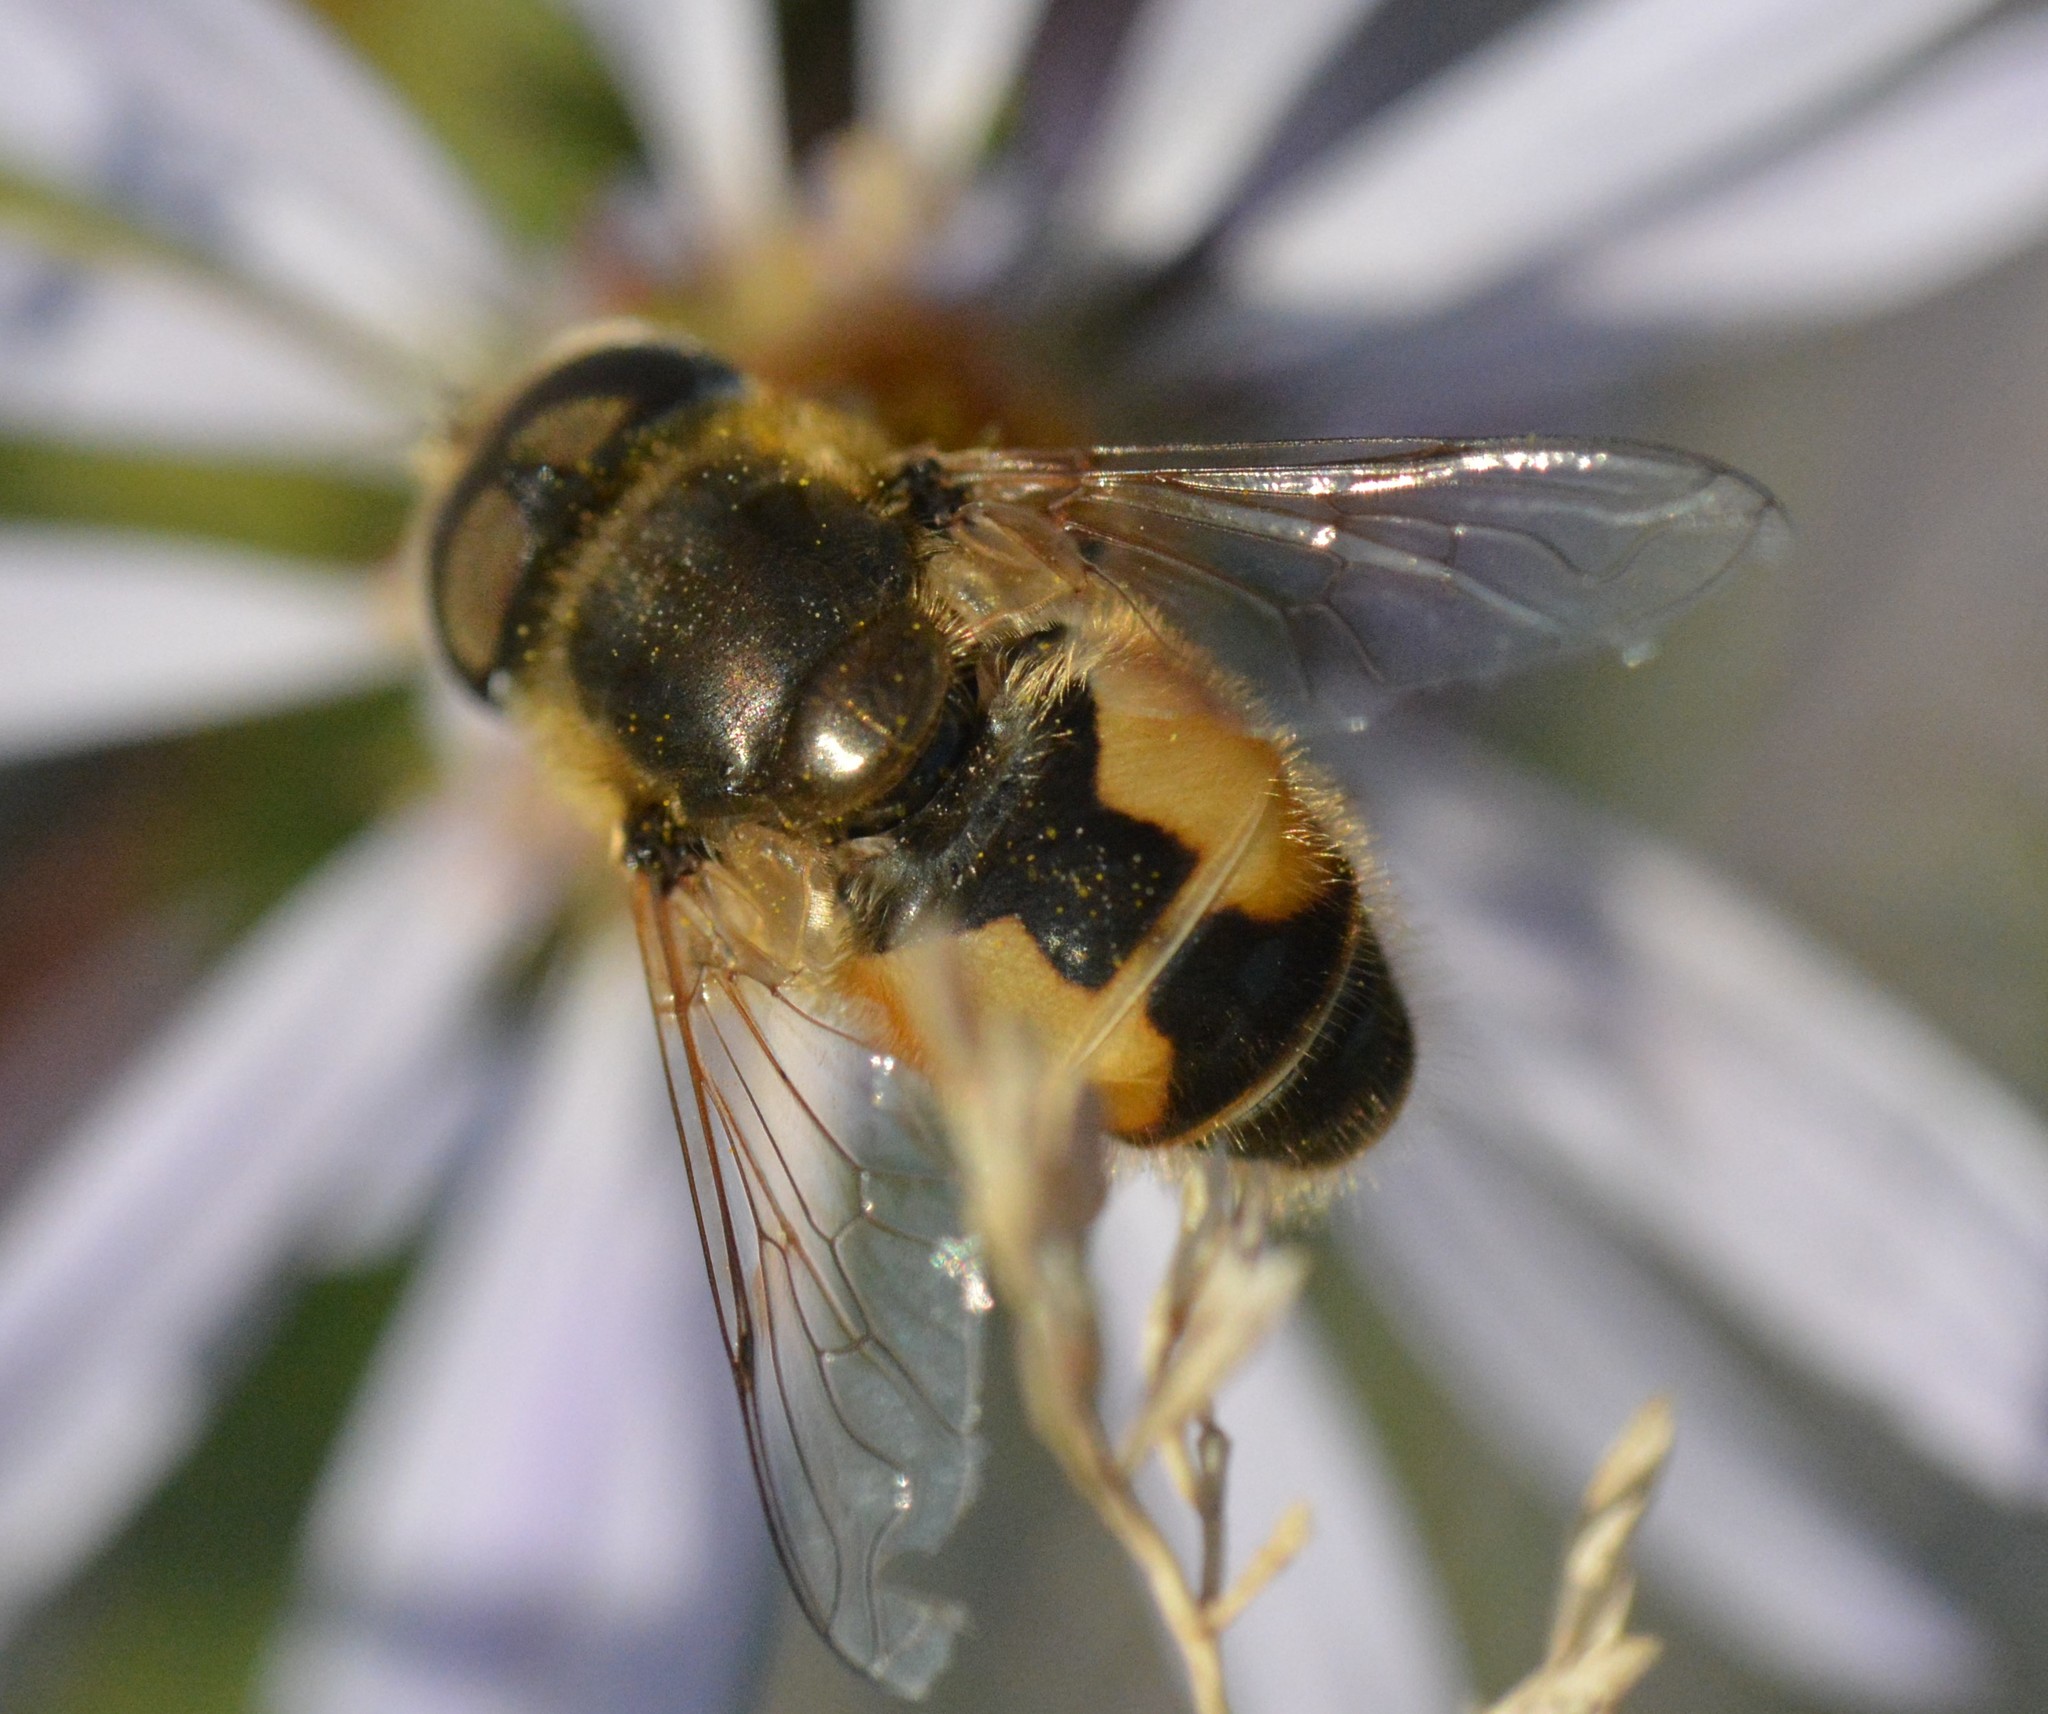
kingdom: Animalia
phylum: Arthropoda
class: Insecta
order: Diptera
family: Syrphidae
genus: Eristalis
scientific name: Eristalis arbustorum
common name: Hover fly
